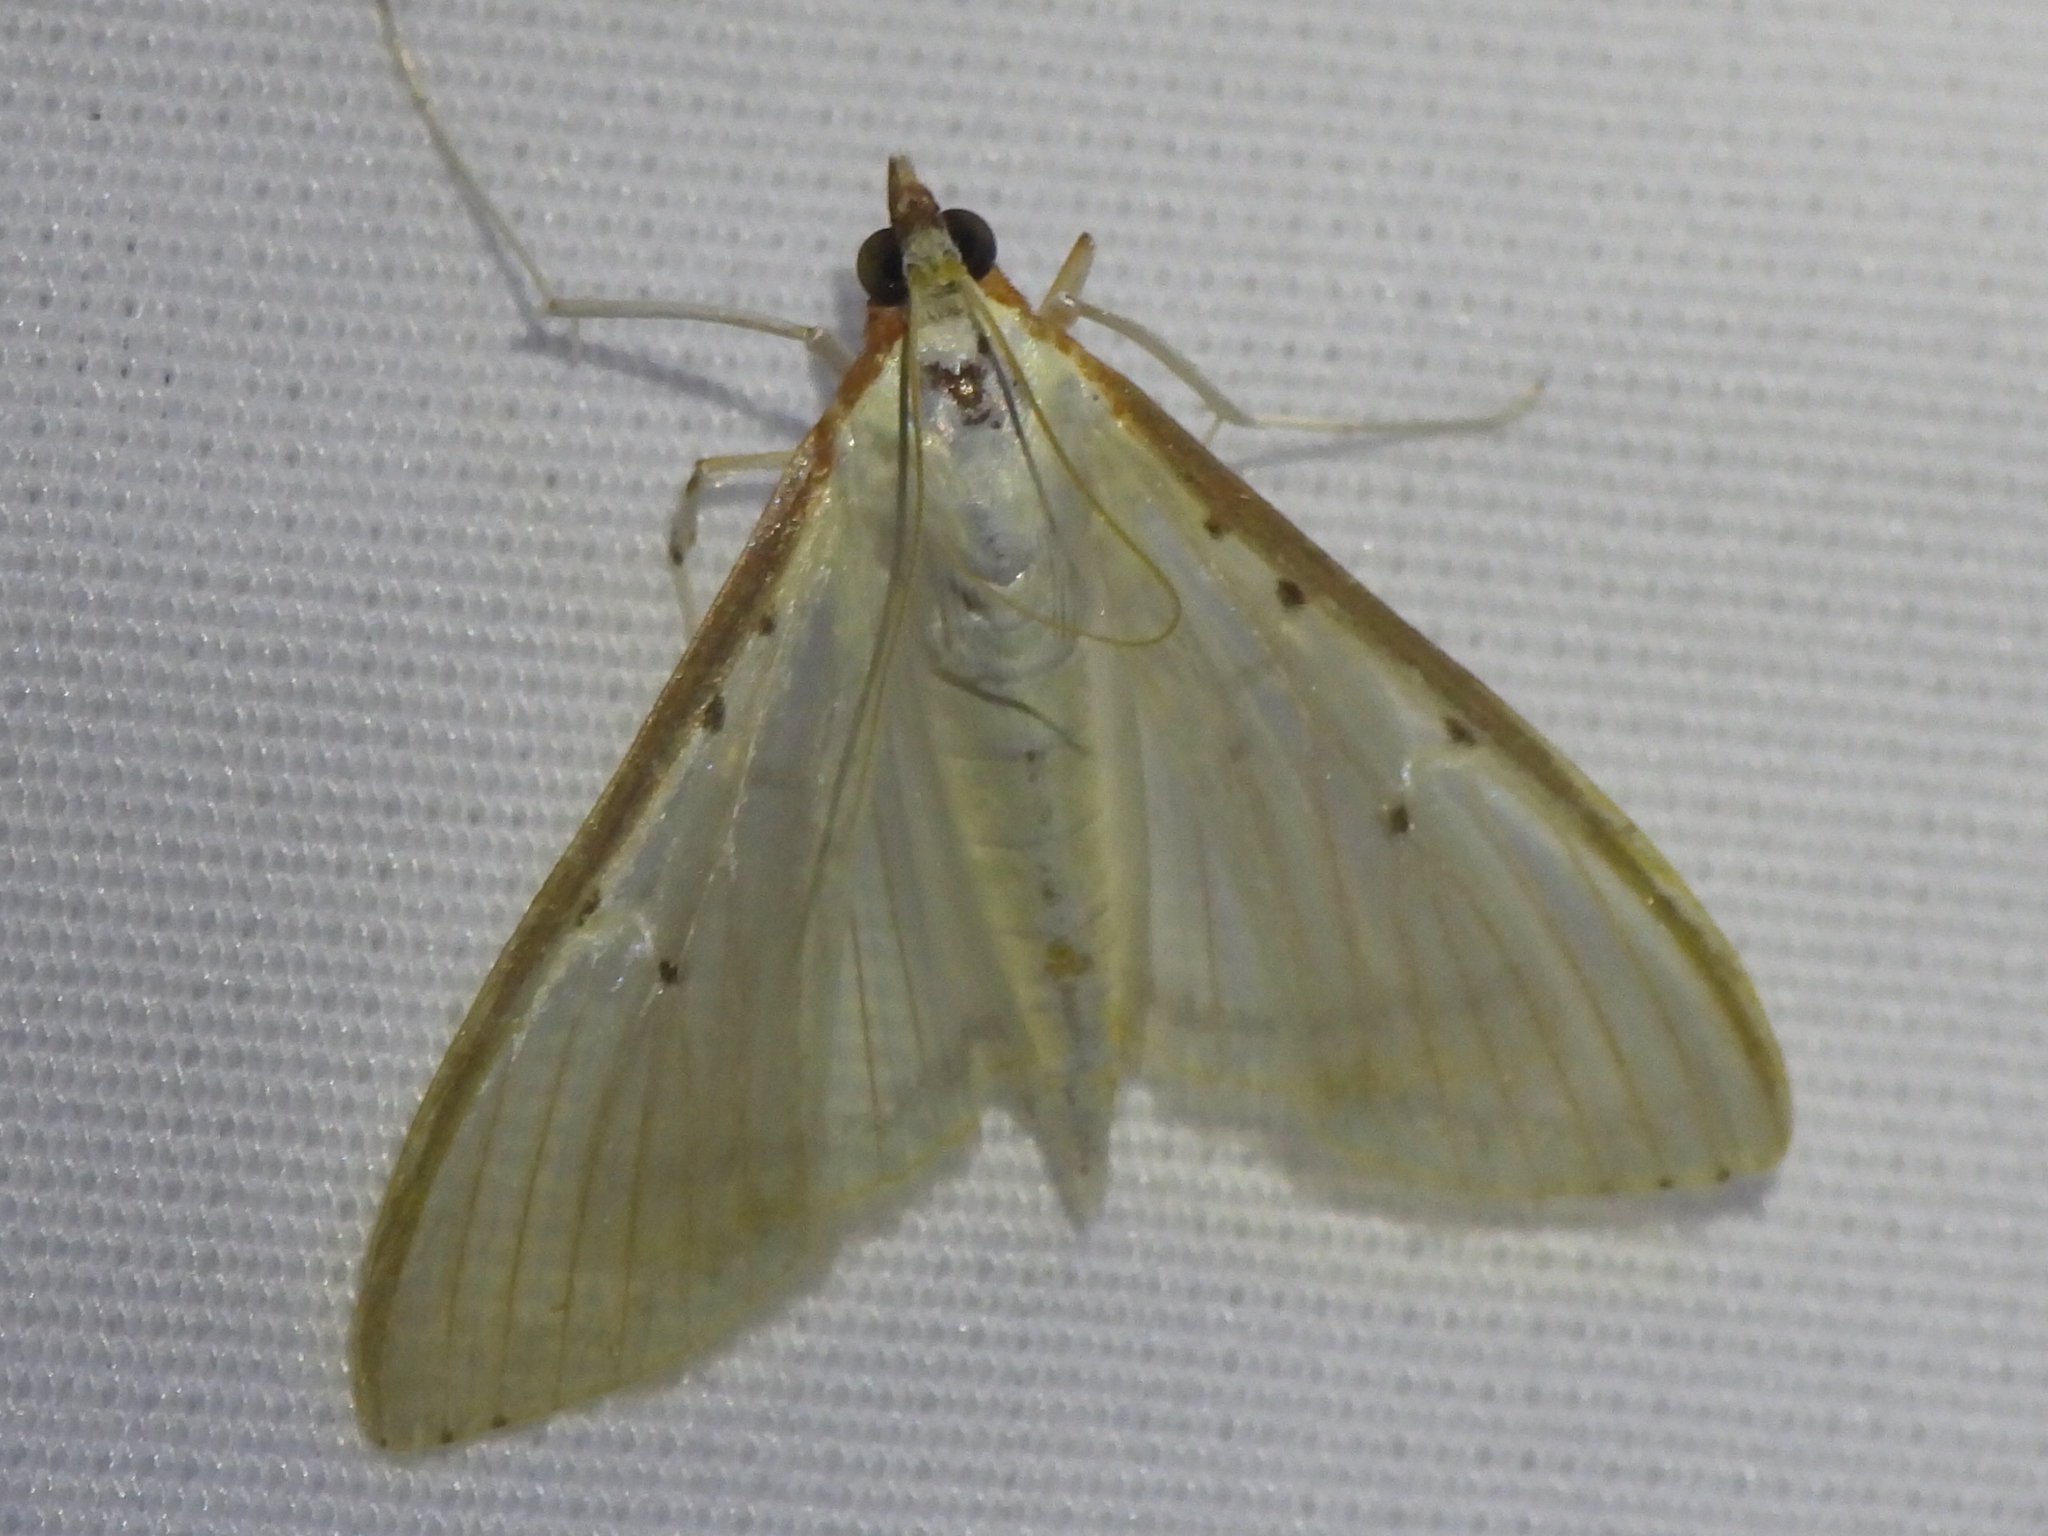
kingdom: Animalia
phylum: Arthropoda
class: Insecta
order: Lepidoptera
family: Crambidae
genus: Palpita
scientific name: Palpita quadristigmalis
